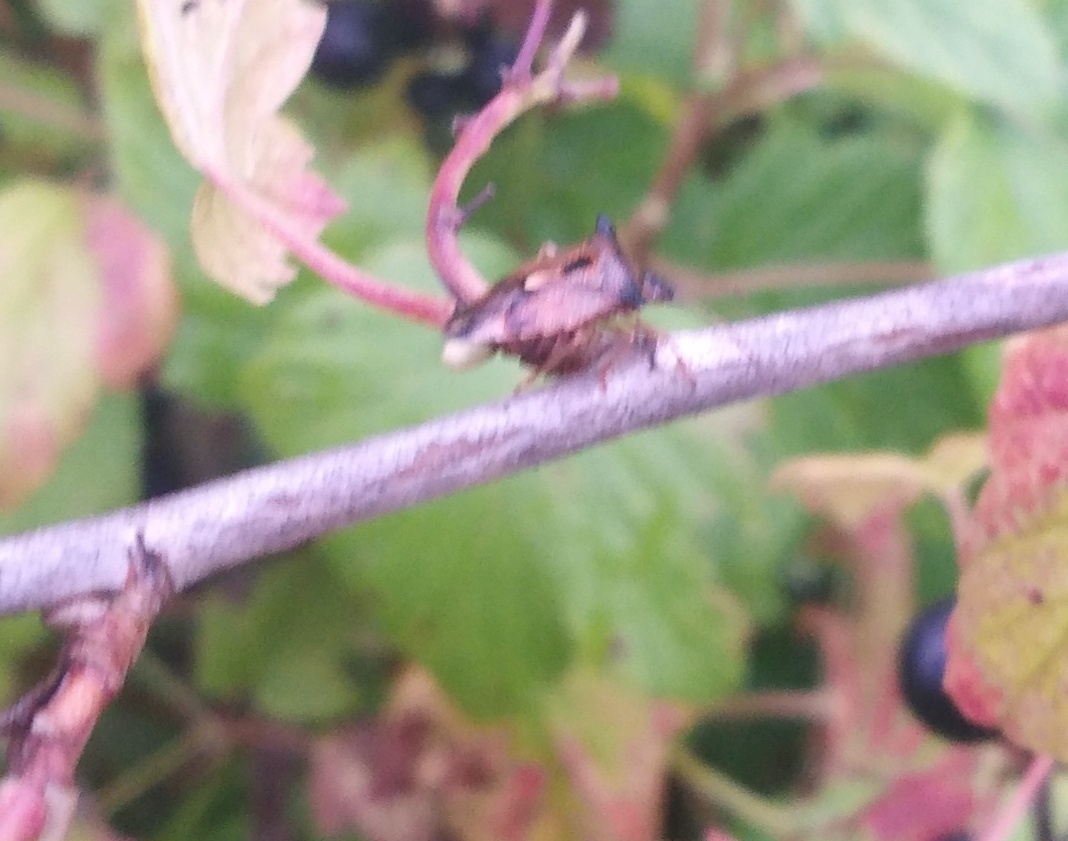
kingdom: Animalia
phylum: Arthropoda
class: Insecta
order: Hemiptera
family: Acanthosomatidae
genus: Elasmucha
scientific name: Elasmucha ferrugata
